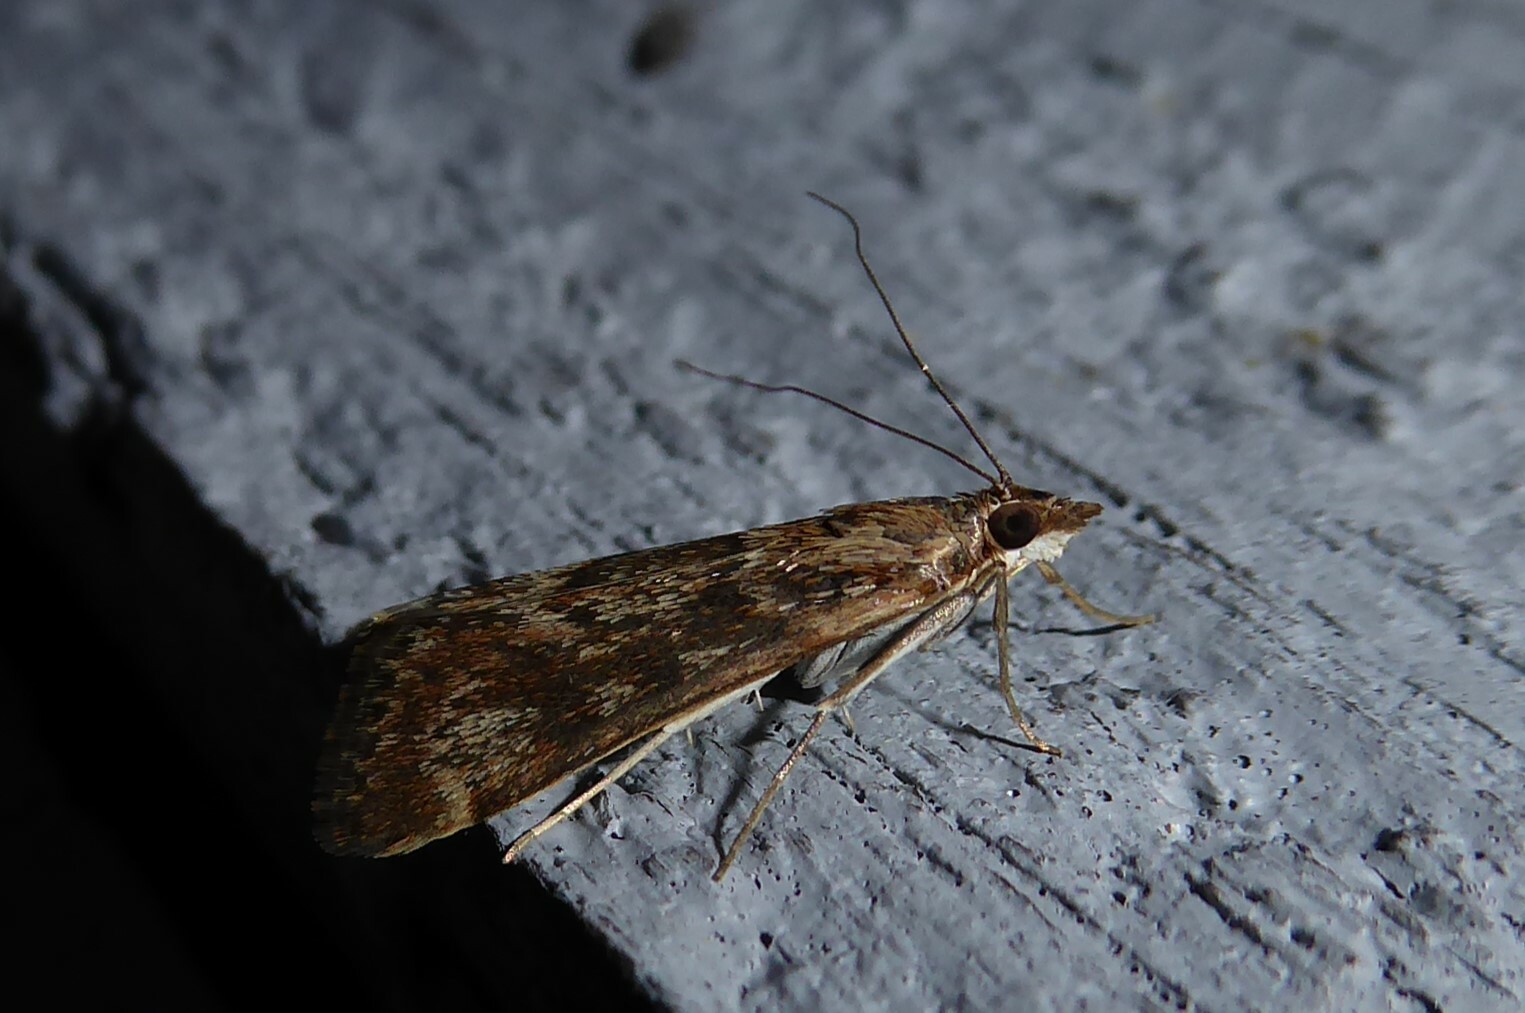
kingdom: Animalia
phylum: Arthropoda
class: Insecta
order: Lepidoptera
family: Crambidae
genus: Achyra
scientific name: Achyra affinitalis
